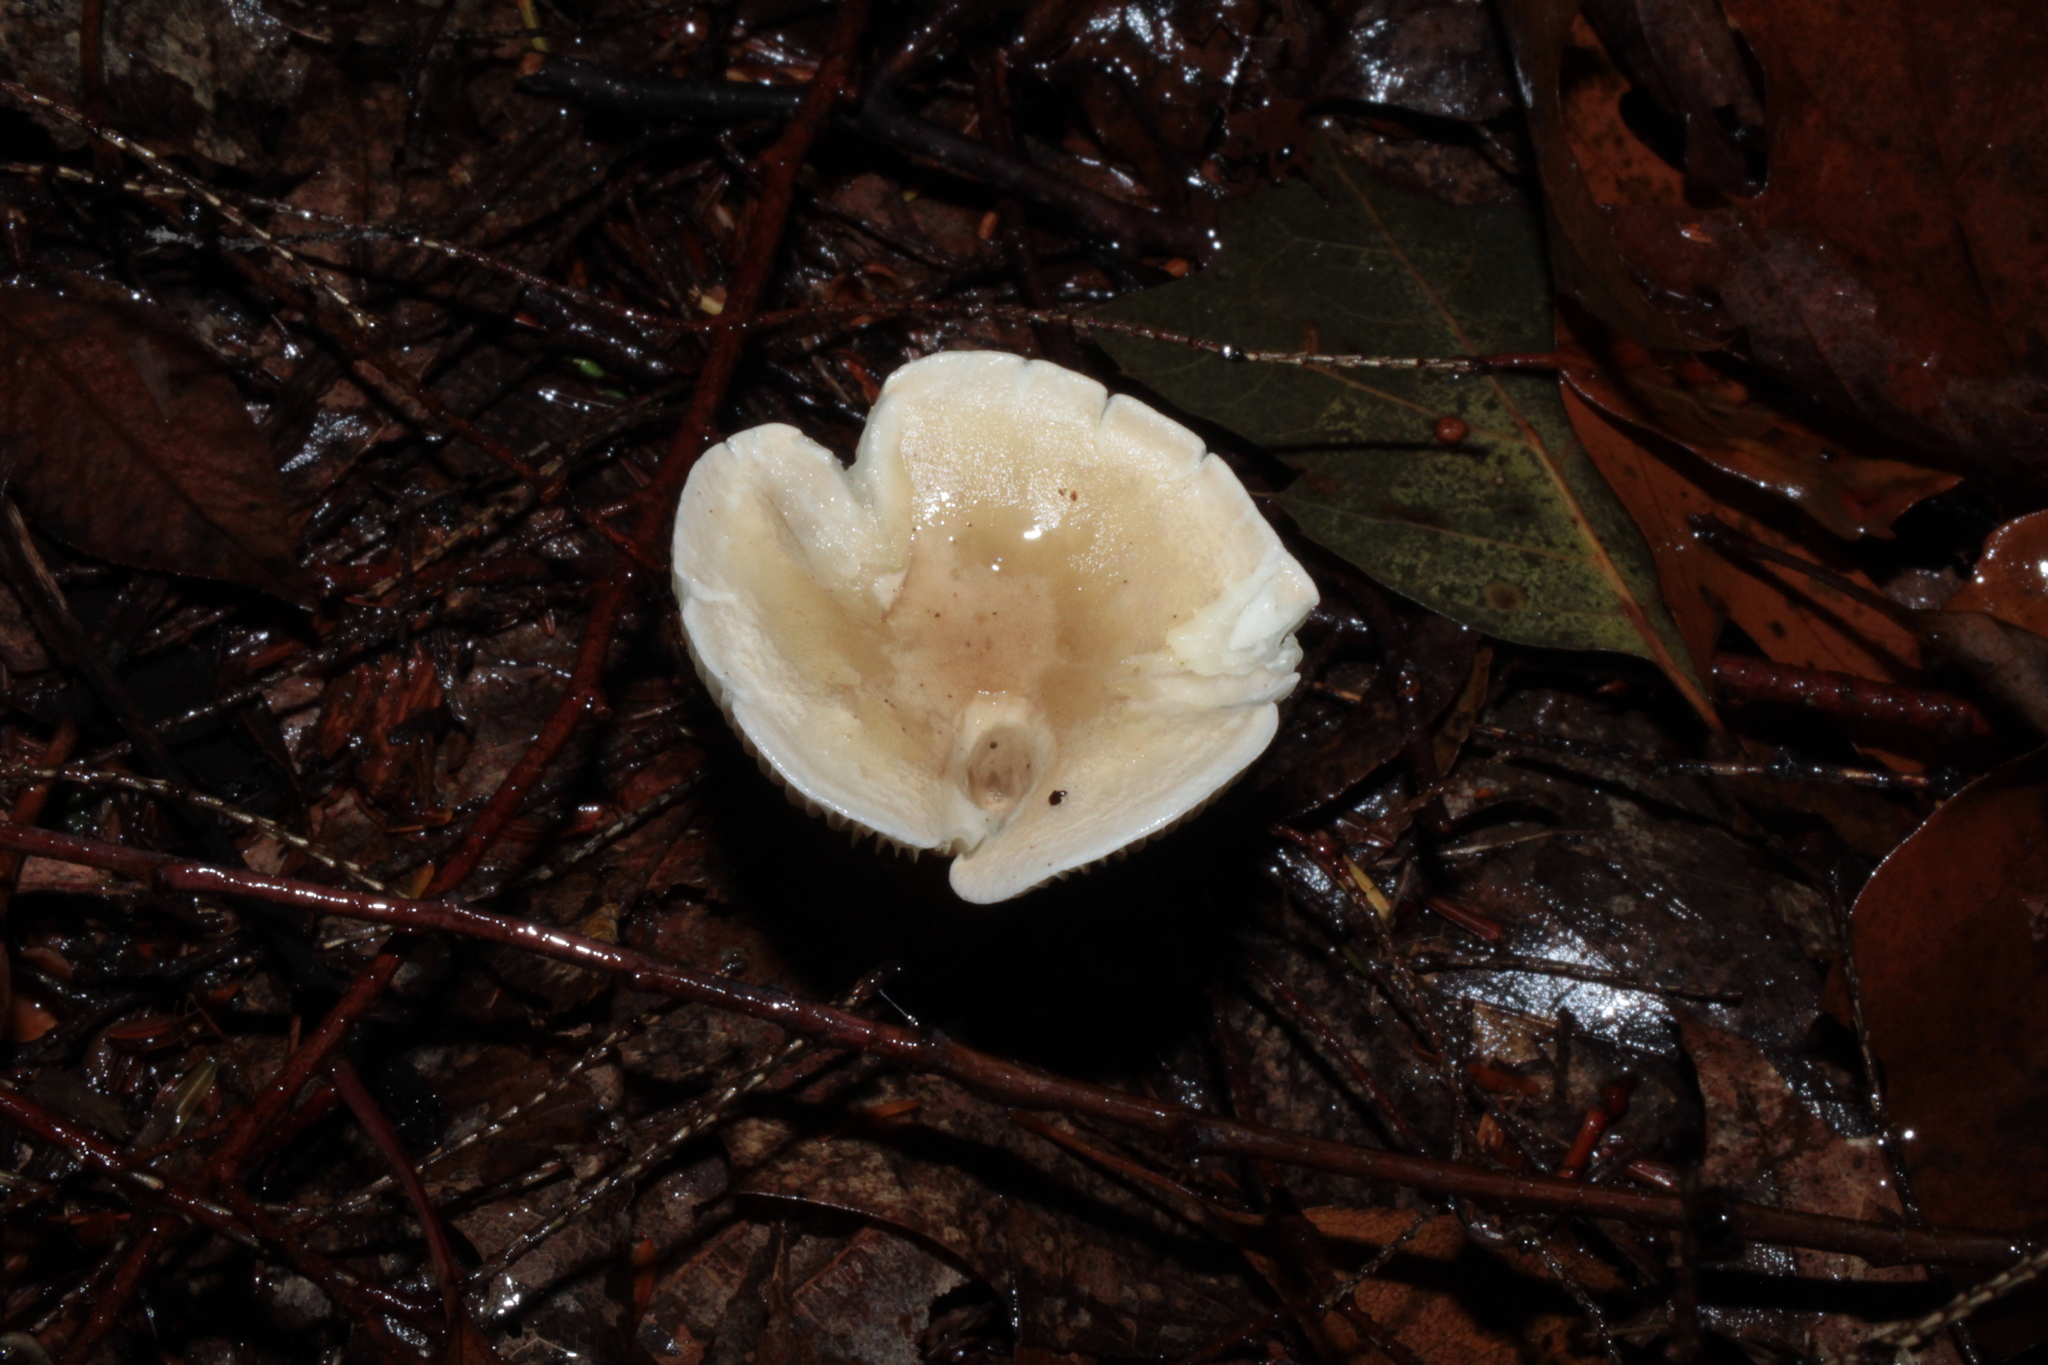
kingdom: Fungi
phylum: Basidiomycota
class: Agaricomycetes
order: Agaricales
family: Hygrophoraceae
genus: Ampulloclitocybe
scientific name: Ampulloclitocybe clavipes
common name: Club foot
